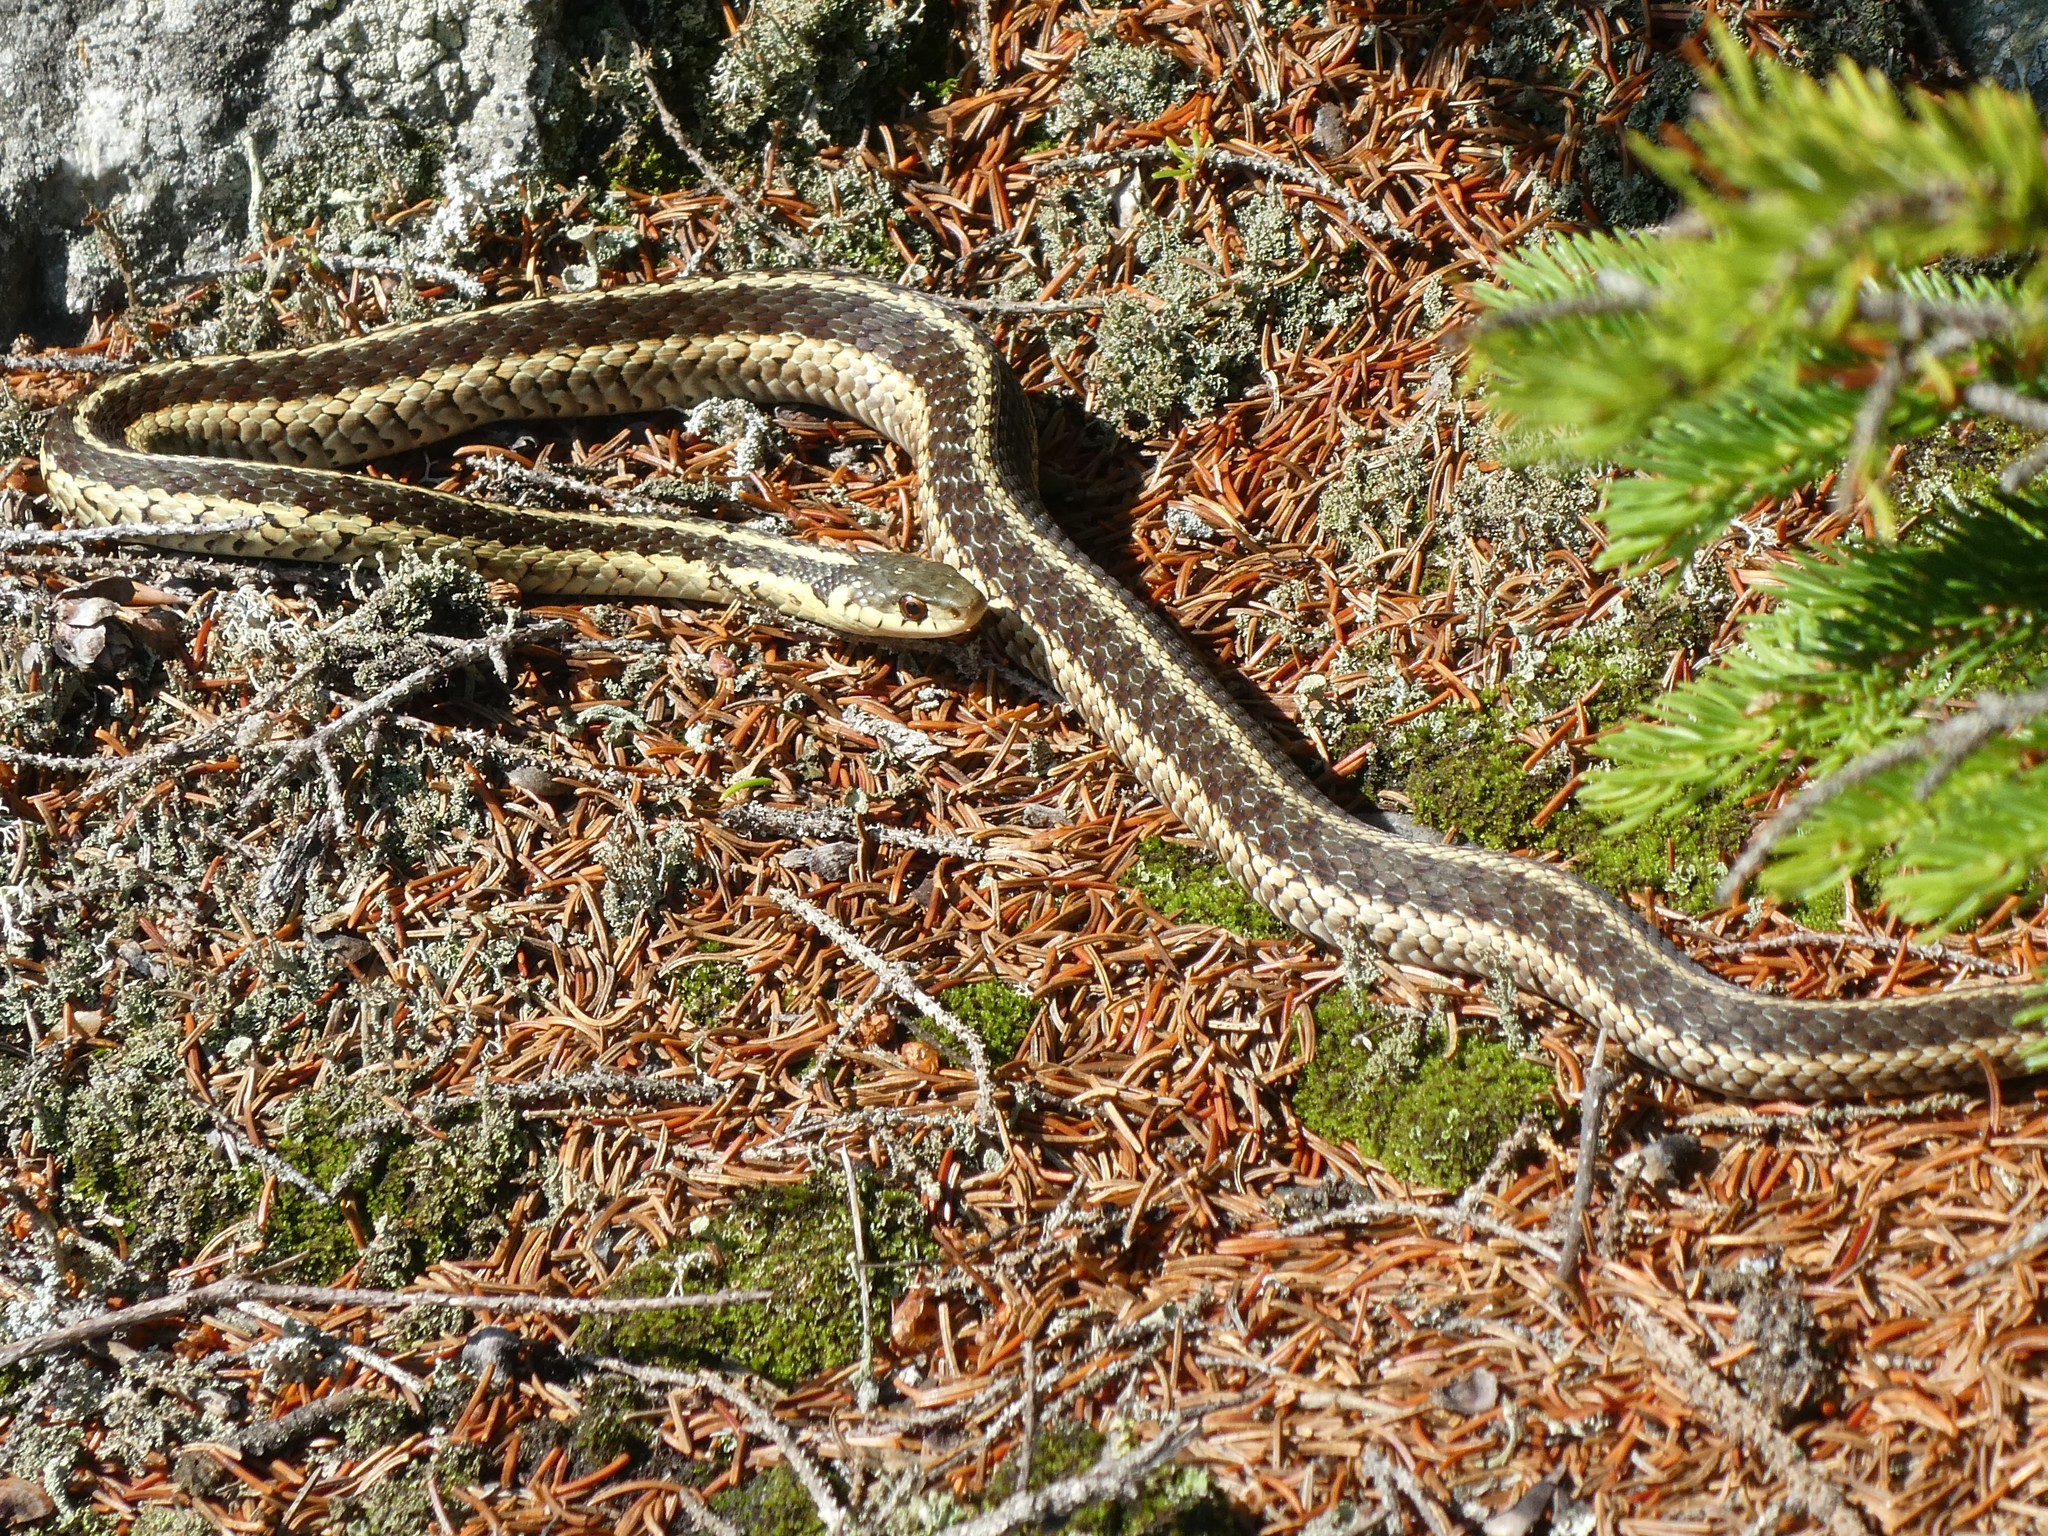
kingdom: Animalia
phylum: Chordata
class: Squamata
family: Colubridae
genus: Thamnophis
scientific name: Thamnophis sirtalis
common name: Common garter snake
